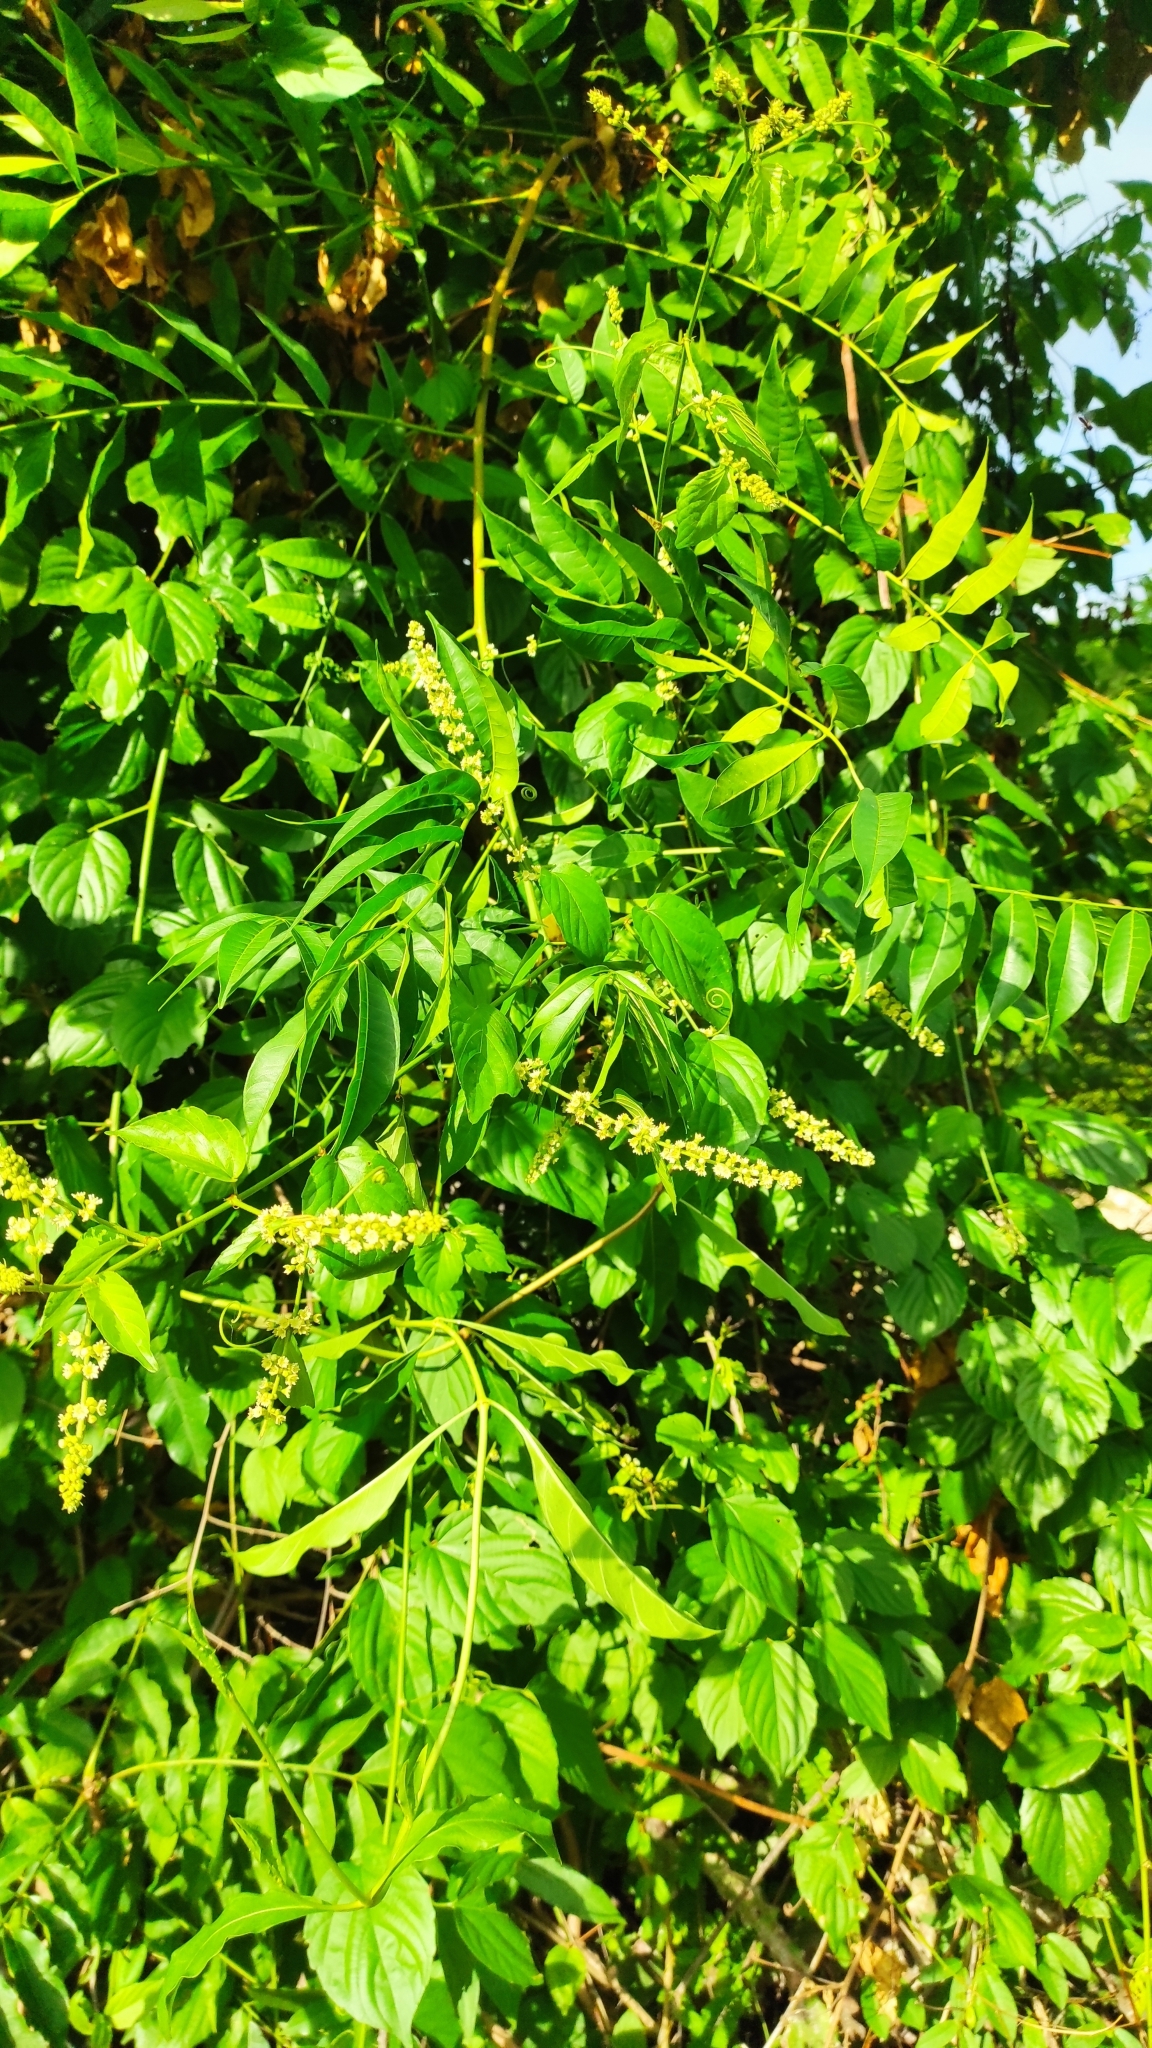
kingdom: Plantae
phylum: Tracheophyta
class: Magnoliopsida
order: Rosales
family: Rhamnaceae
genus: Gouania
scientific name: Gouania lupuloides
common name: Chewstick
